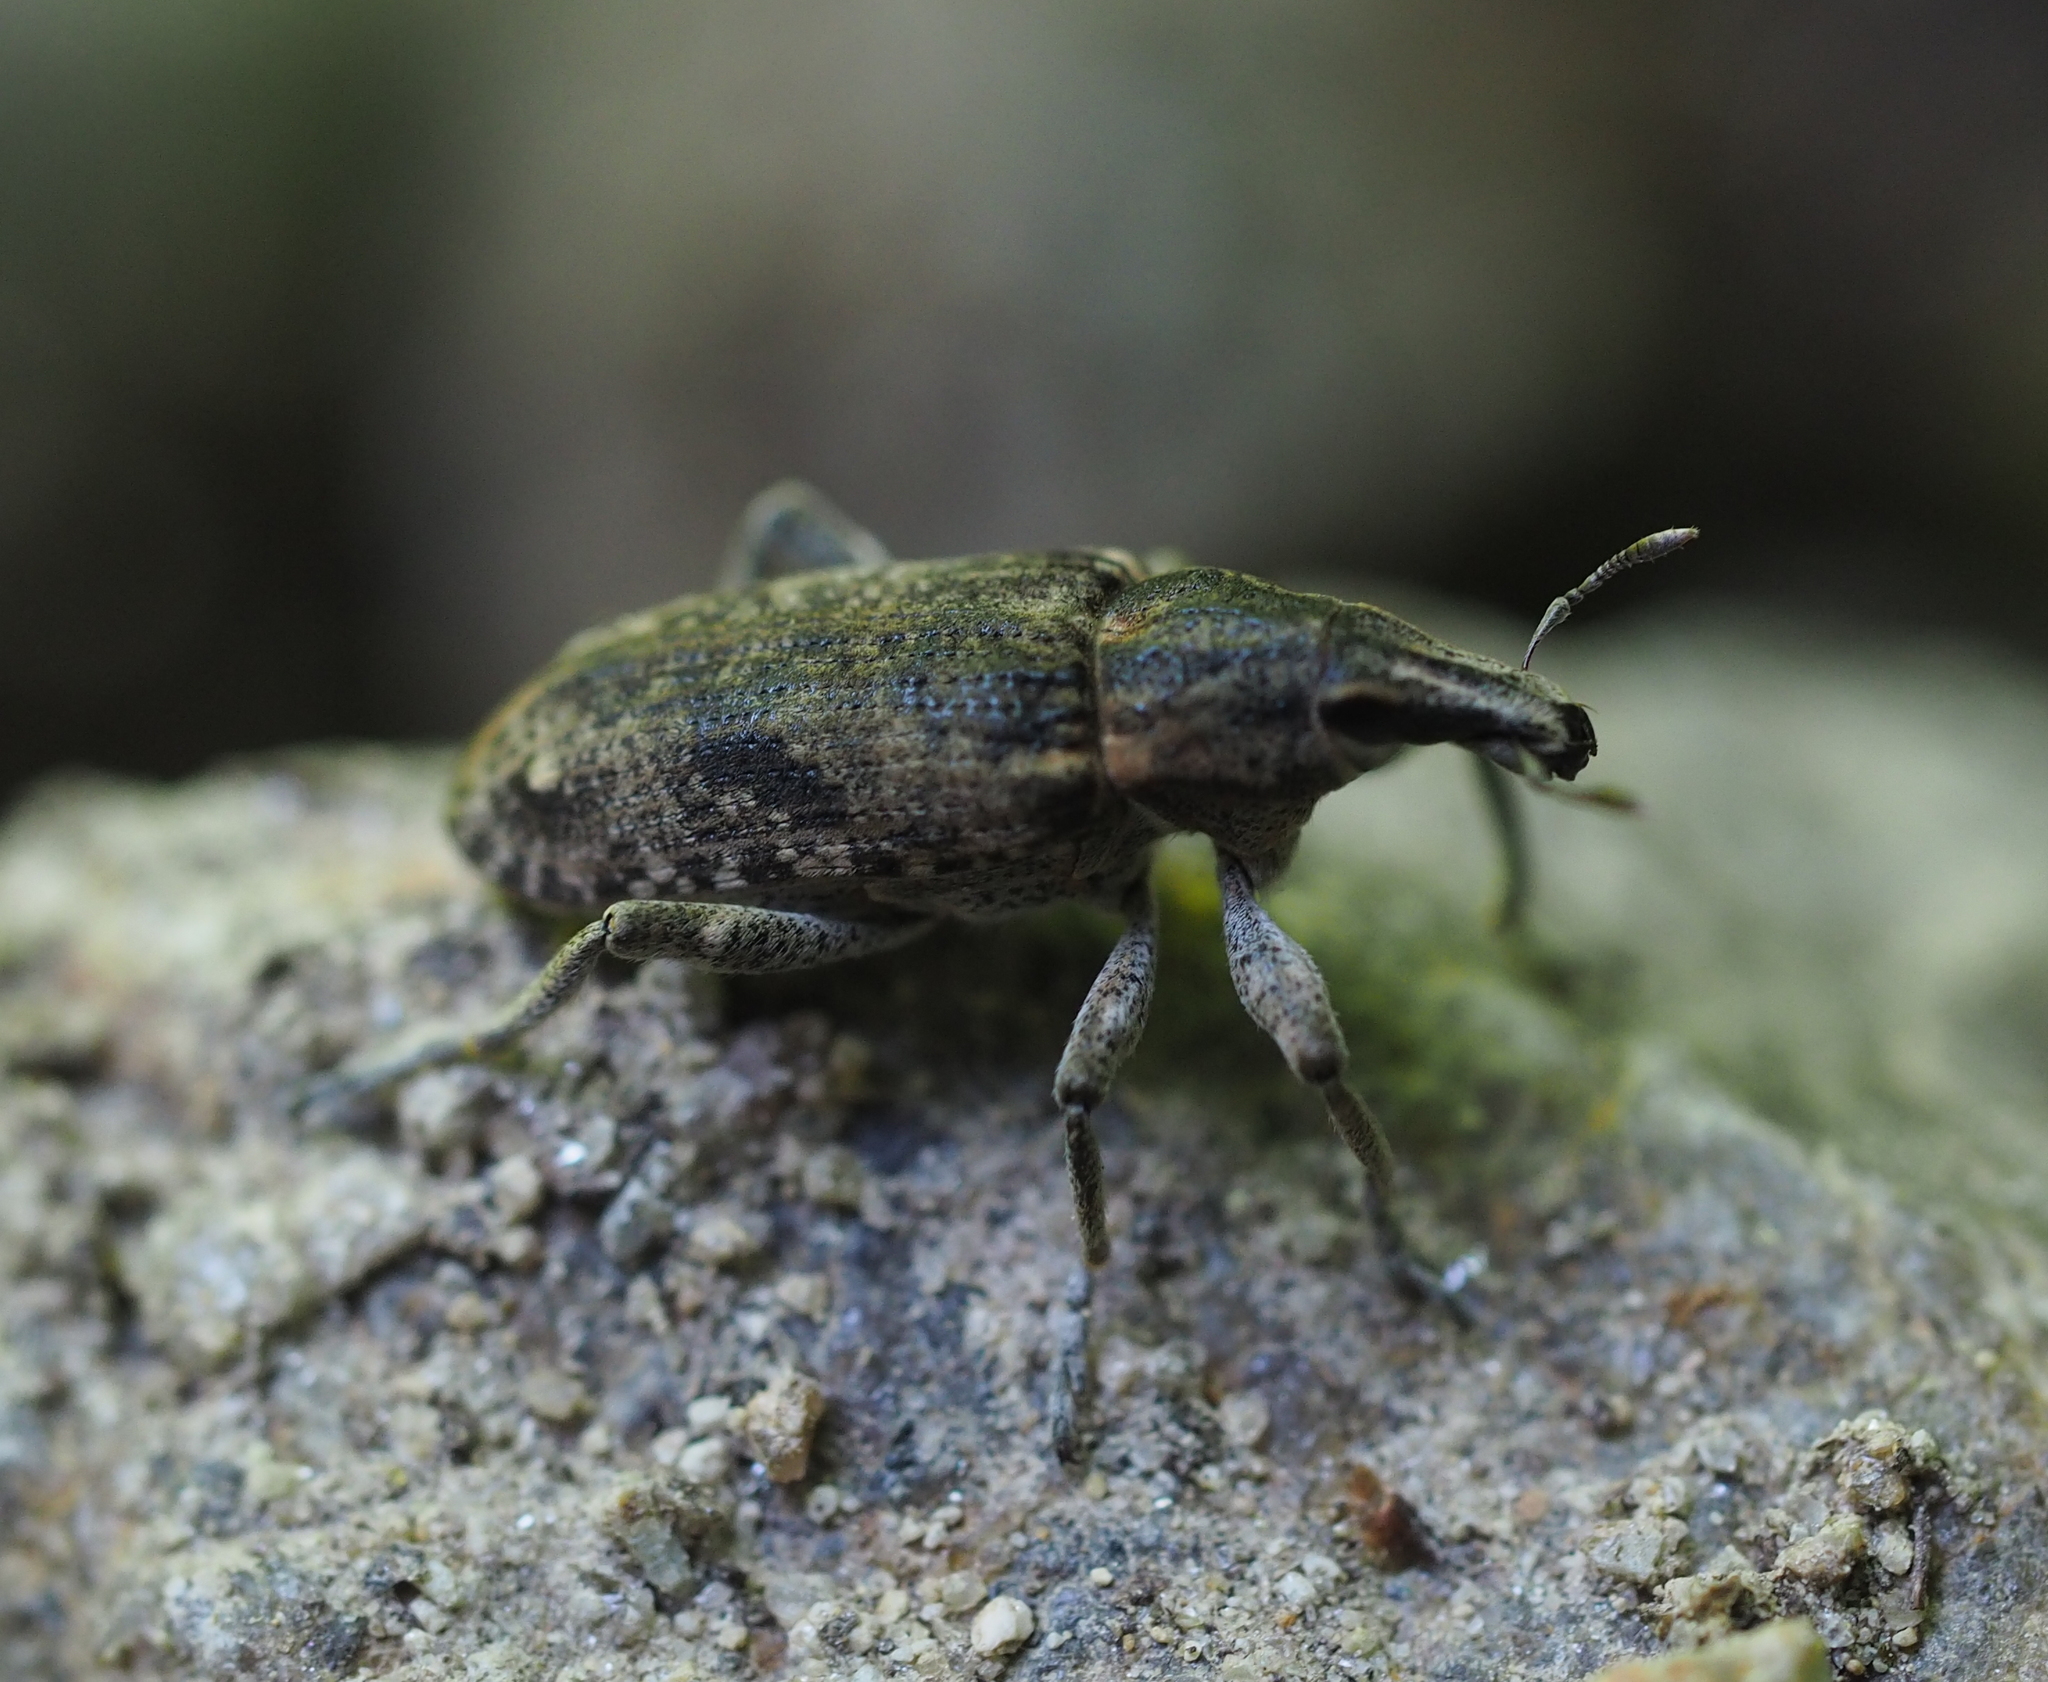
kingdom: Animalia
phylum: Arthropoda
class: Insecta
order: Coleoptera
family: Curculionidae
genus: Asproparthenis
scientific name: Asproparthenis punctiventris
